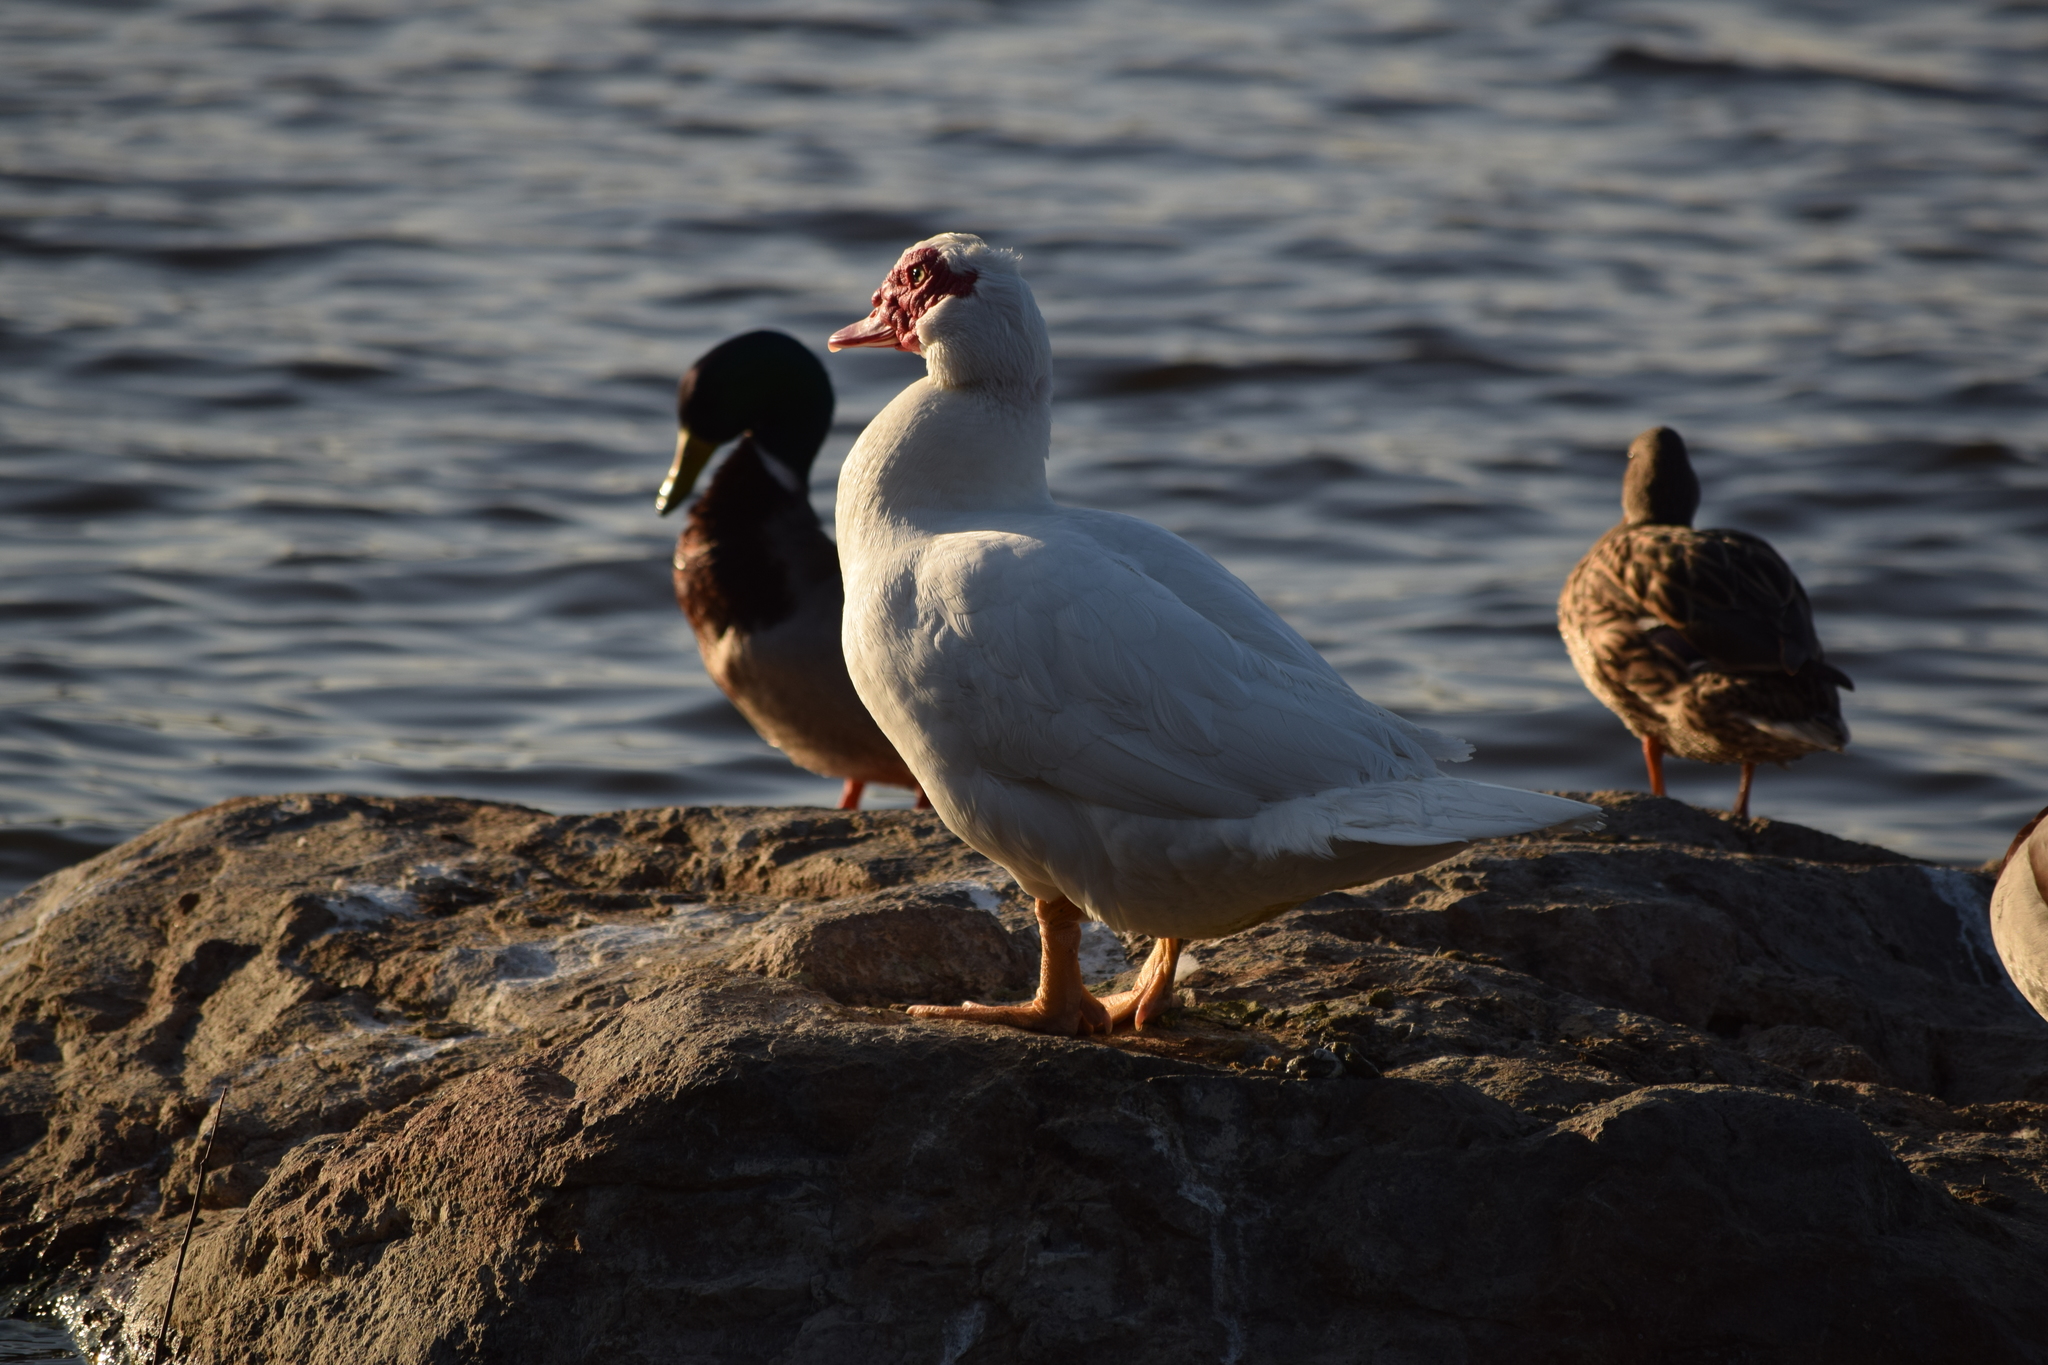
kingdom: Animalia
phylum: Chordata
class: Aves
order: Anseriformes
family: Anatidae
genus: Cairina
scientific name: Cairina moschata
